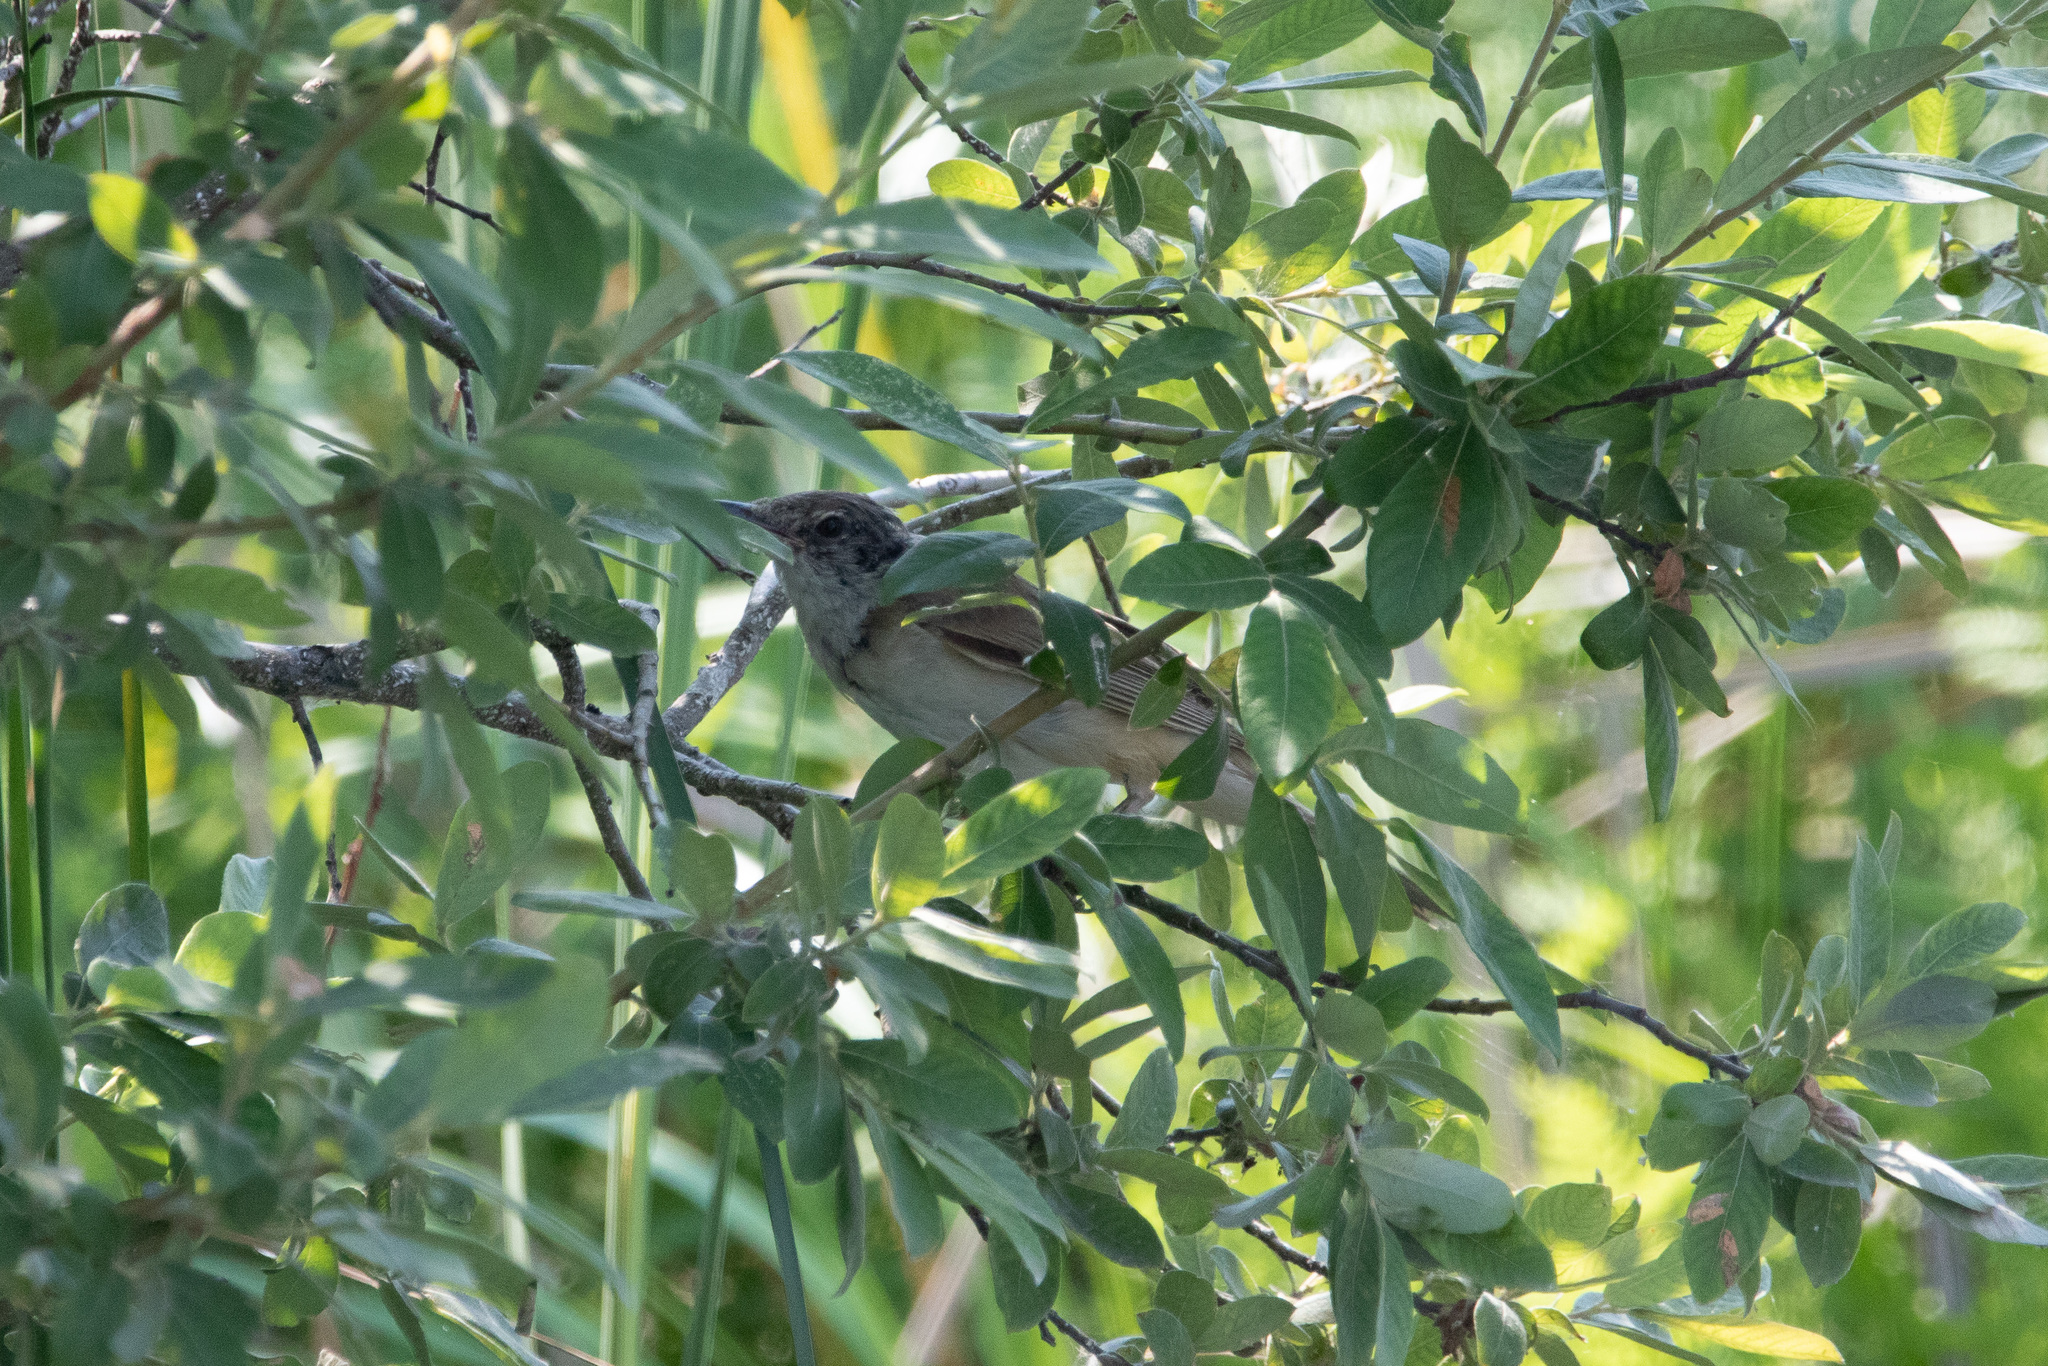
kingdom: Animalia
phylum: Chordata
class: Aves
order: Passeriformes
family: Acrocephalidae
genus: Acrocephalus
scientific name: Acrocephalus arundinaceus
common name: Great reed warbler
